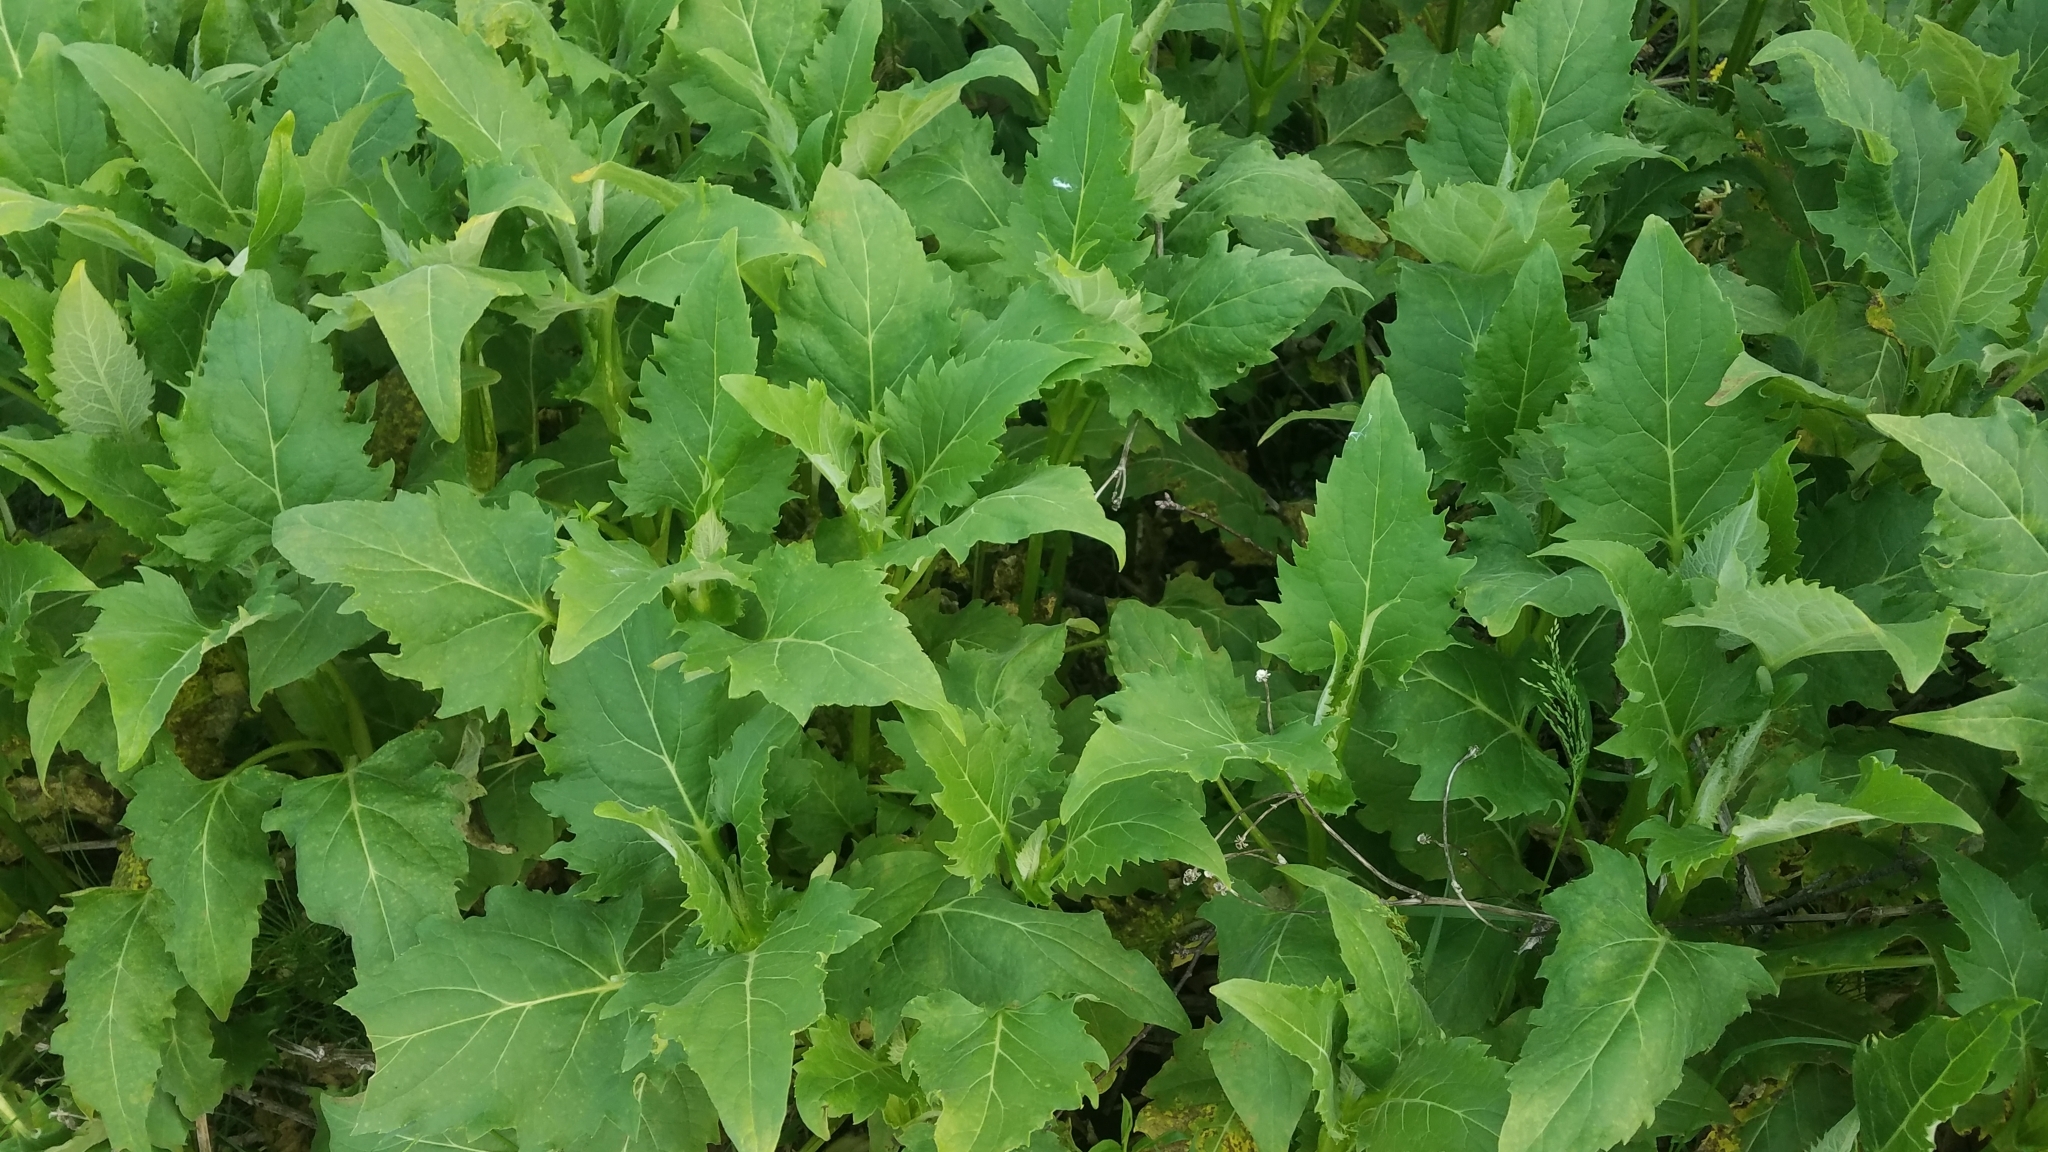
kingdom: Plantae
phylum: Tracheophyta
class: Magnoliopsida
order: Asterales
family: Asteraceae
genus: Silphium
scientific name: Silphium perfoliatum
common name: Cup-plant
